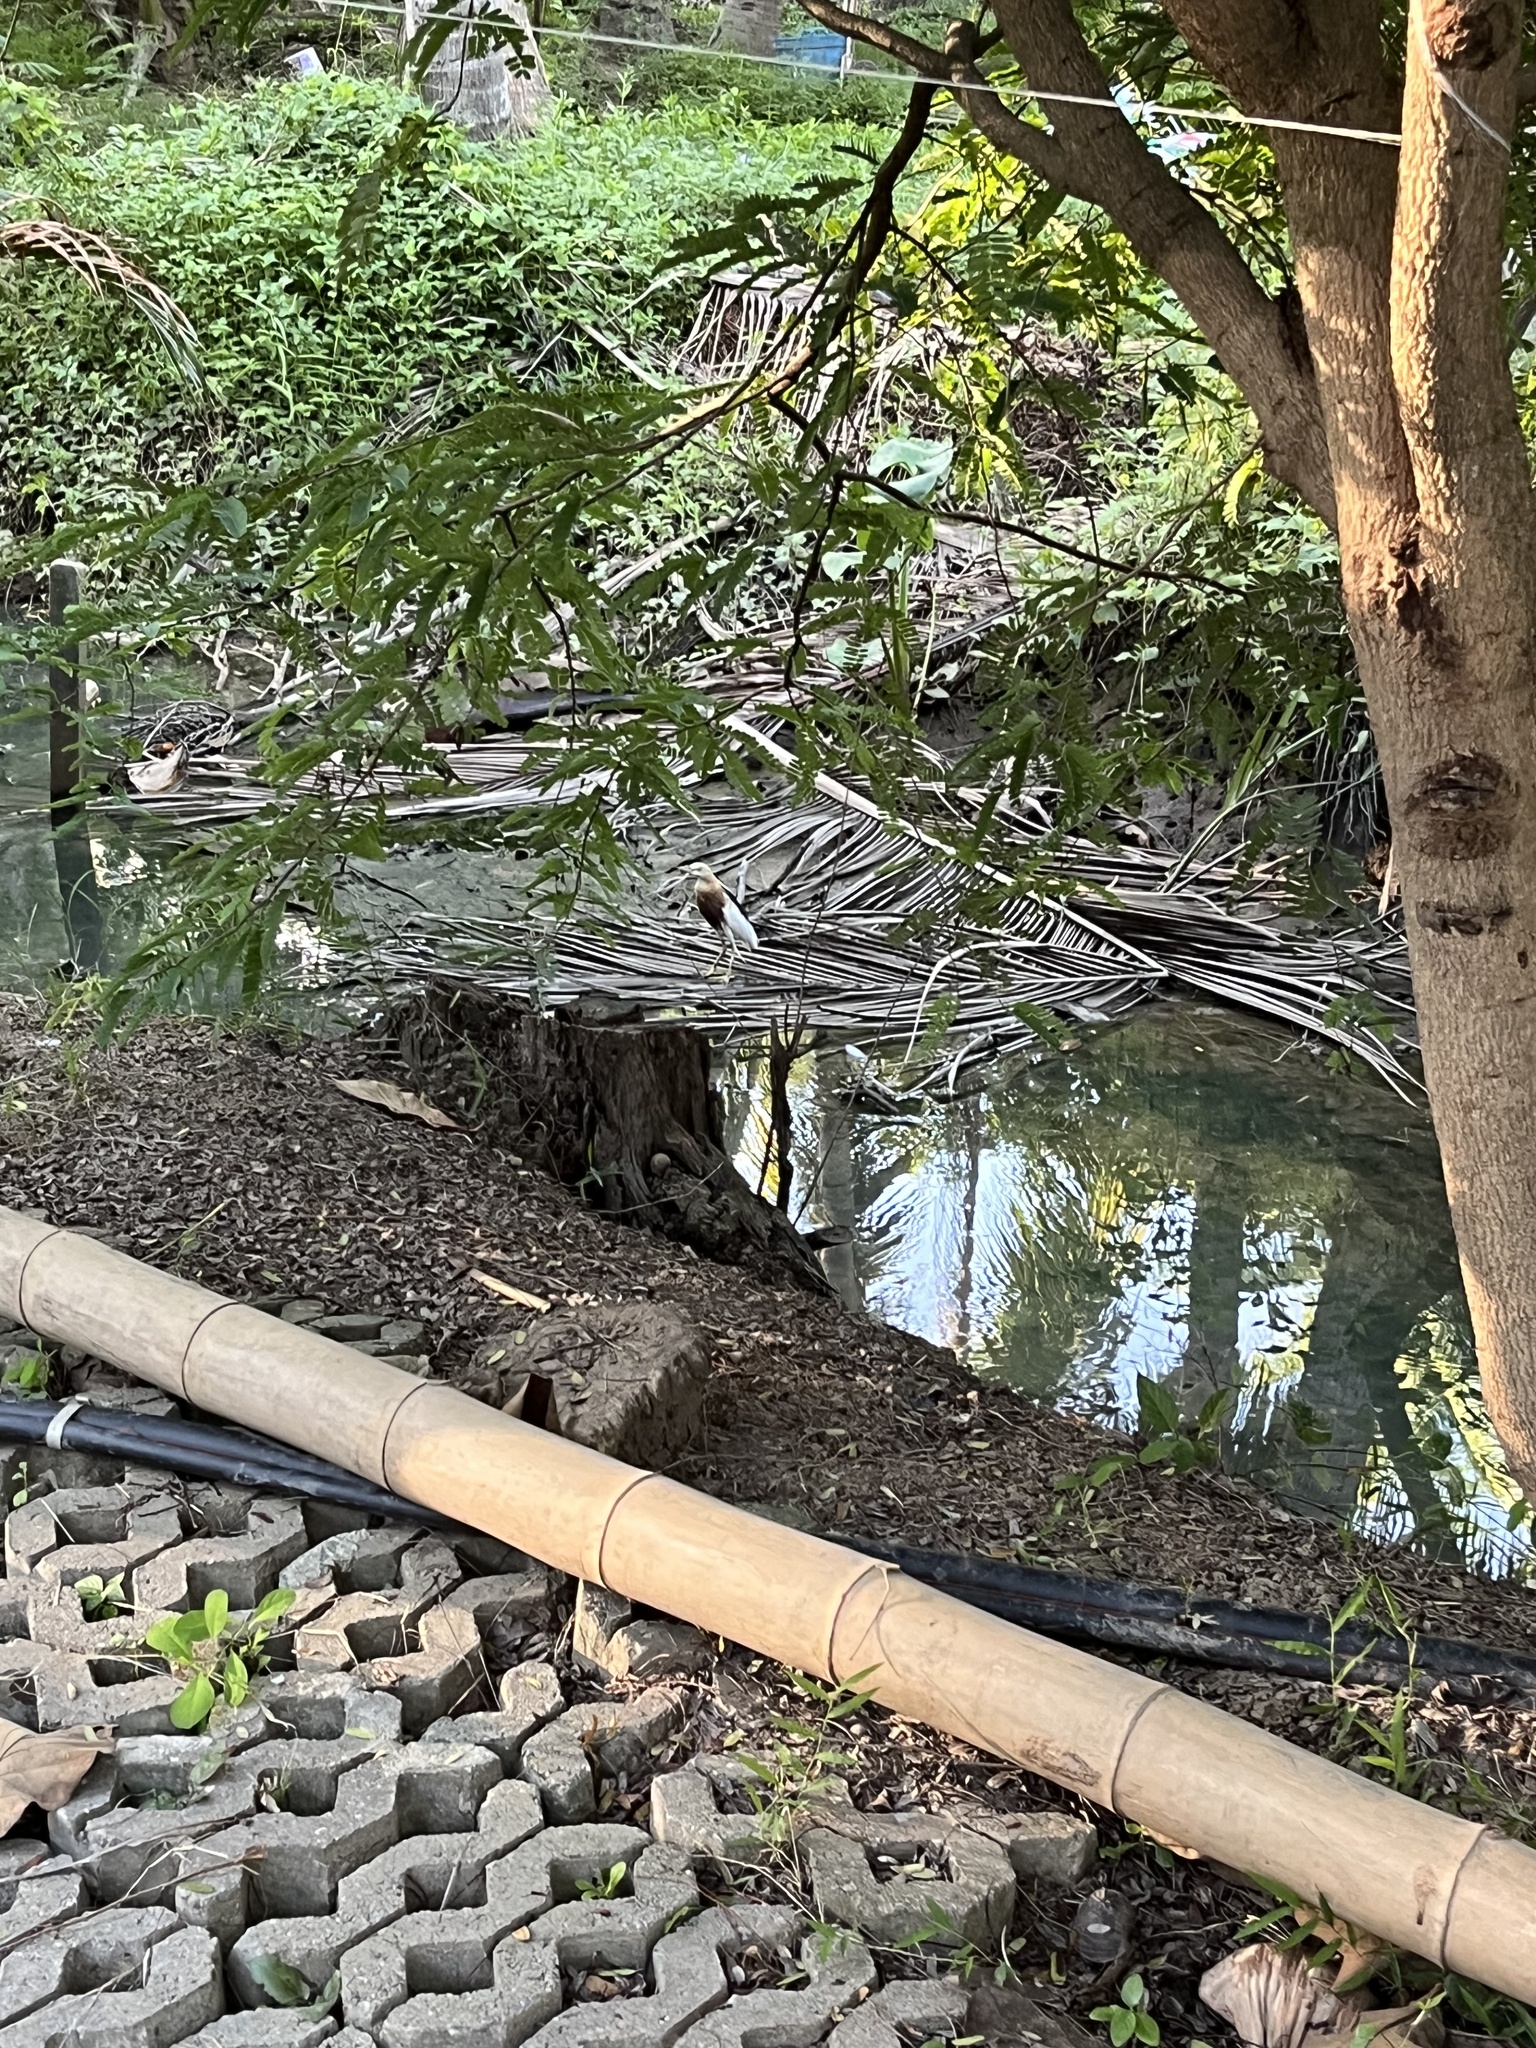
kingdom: Animalia
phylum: Chordata
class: Aves
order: Pelecaniformes
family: Ardeidae
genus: Ardeola
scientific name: Ardeola speciosa
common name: Javan pond heron
